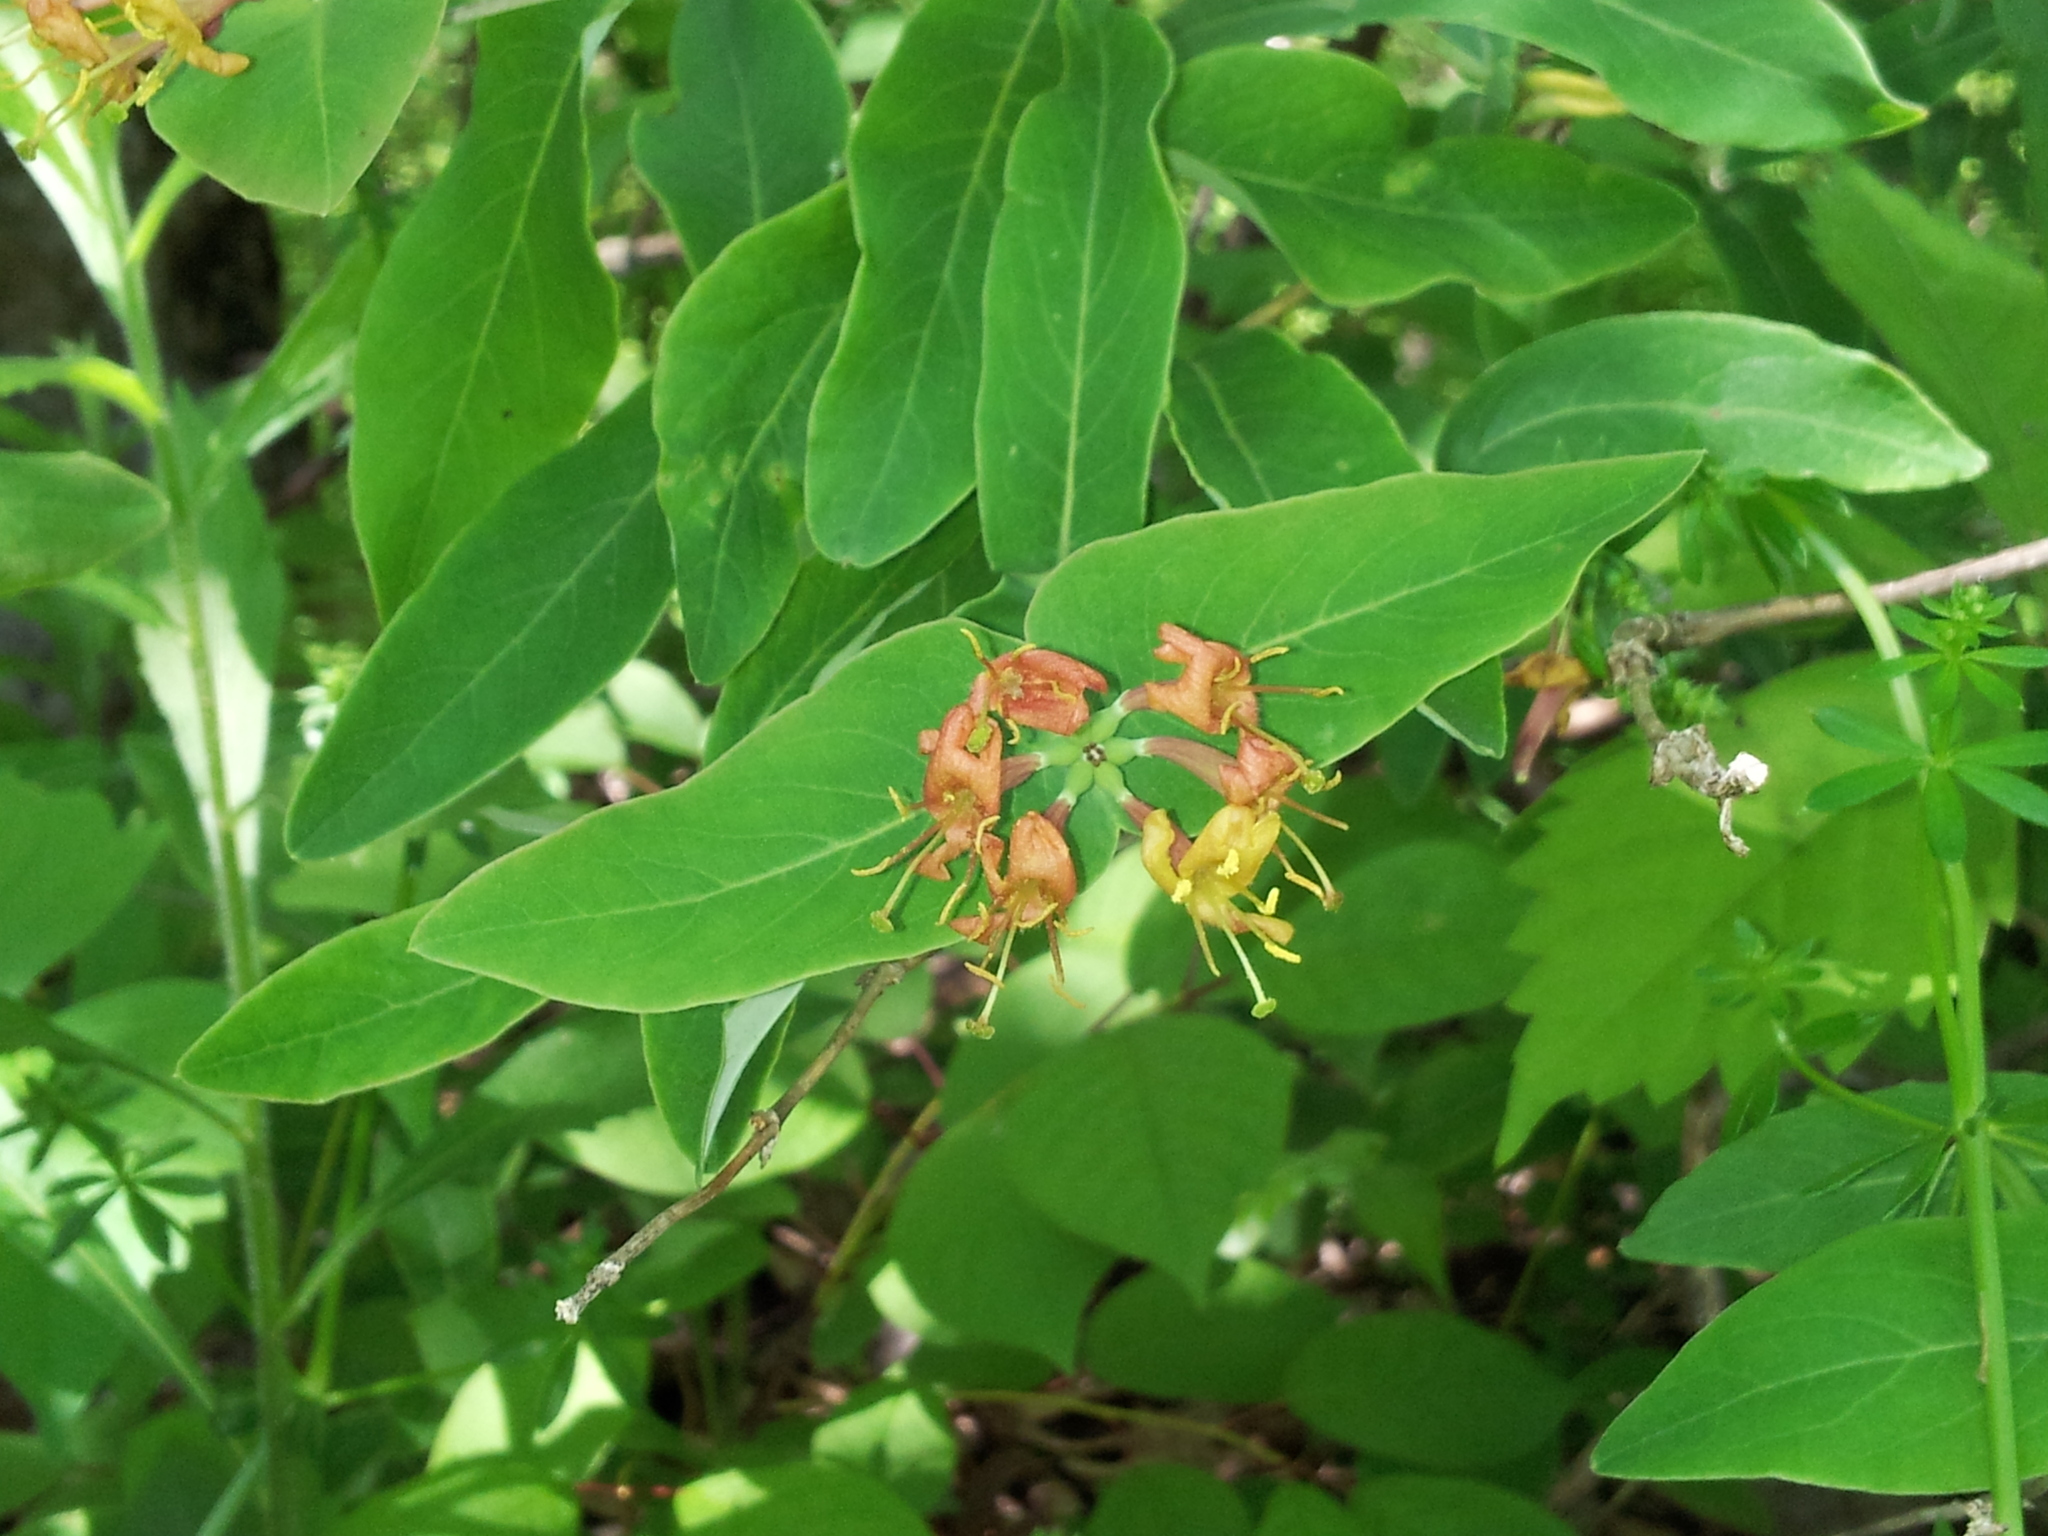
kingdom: Plantae
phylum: Tracheophyta
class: Magnoliopsida
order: Dipsacales
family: Caprifoliaceae
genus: Lonicera
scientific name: Lonicera dioica
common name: Limber honeysuckle
